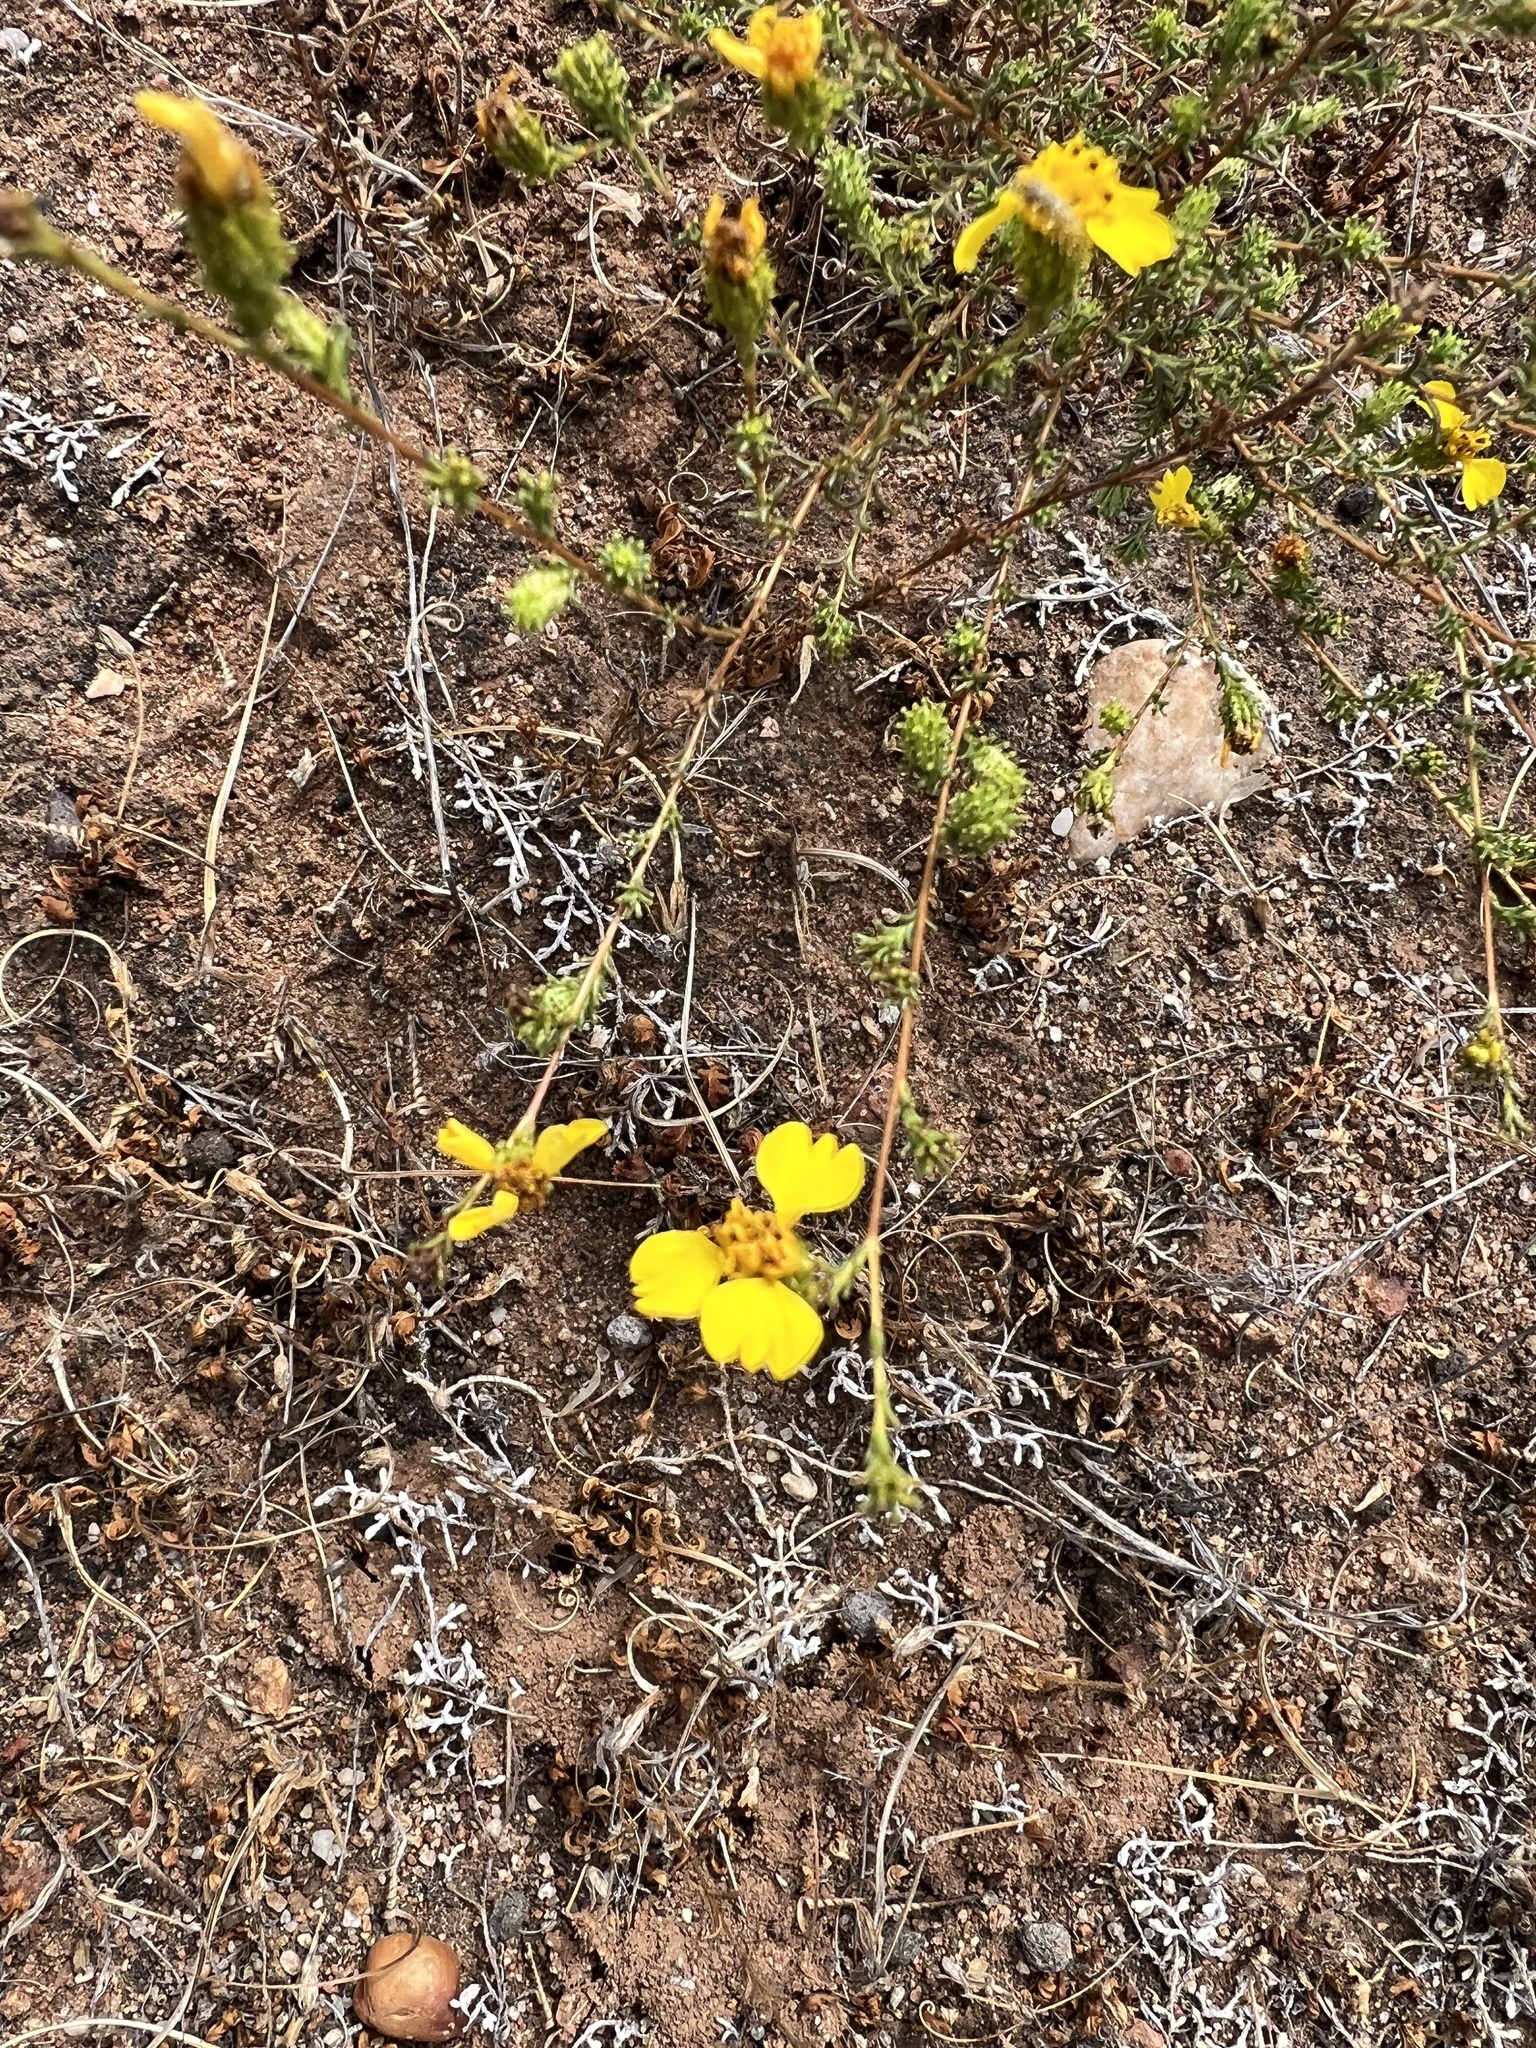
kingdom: Plantae
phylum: Tracheophyta
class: Magnoliopsida
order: Asterales
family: Asteraceae
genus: Holocarpha
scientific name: Holocarpha virgata
